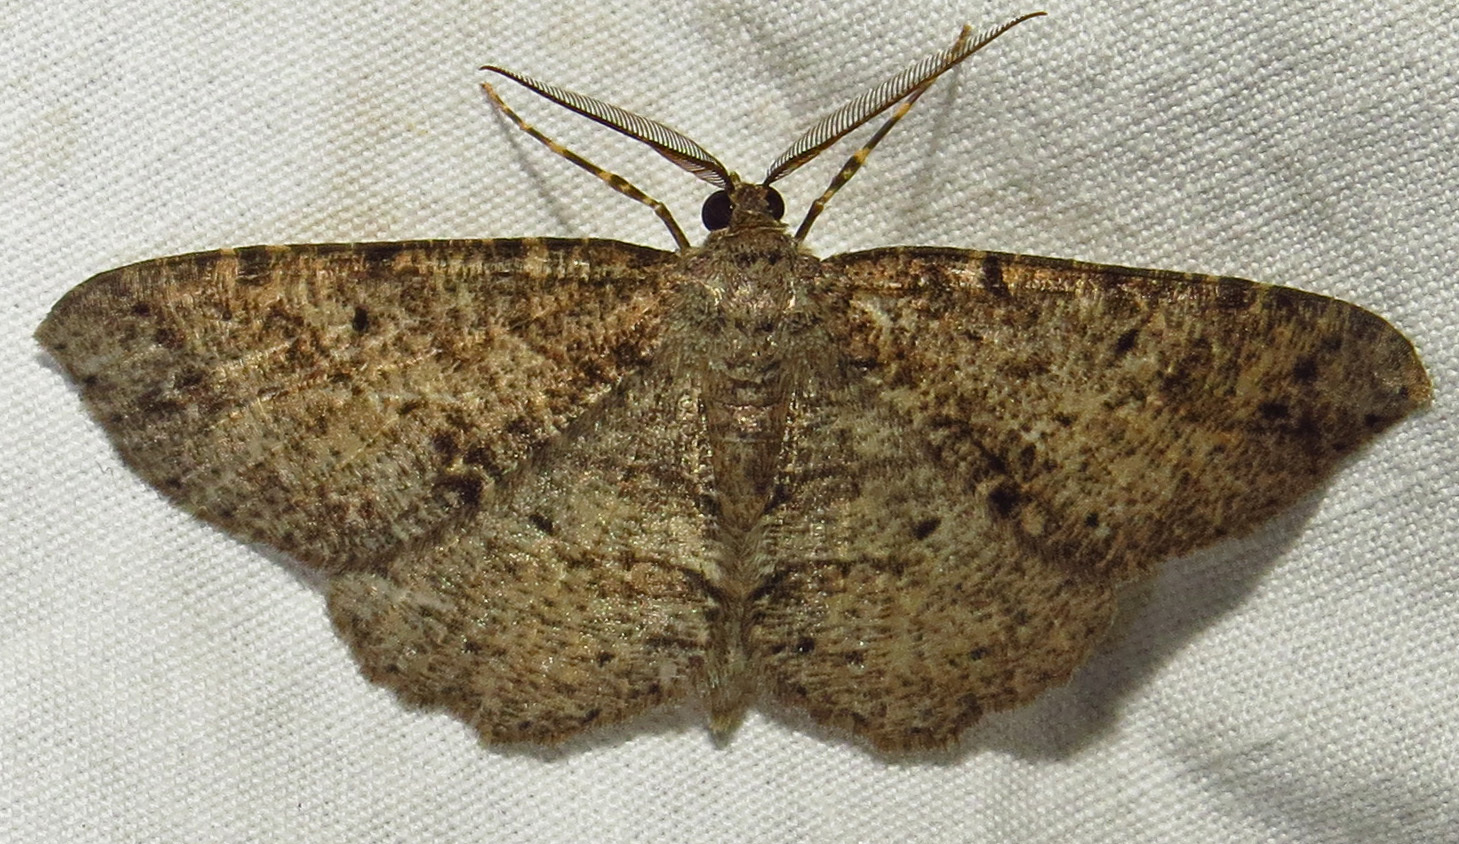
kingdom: Animalia
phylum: Arthropoda
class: Insecta
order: Lepidoptera
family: Geometridae
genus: Melanolophia
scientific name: Melanolophia canadaria
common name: Canadian melanolophia
